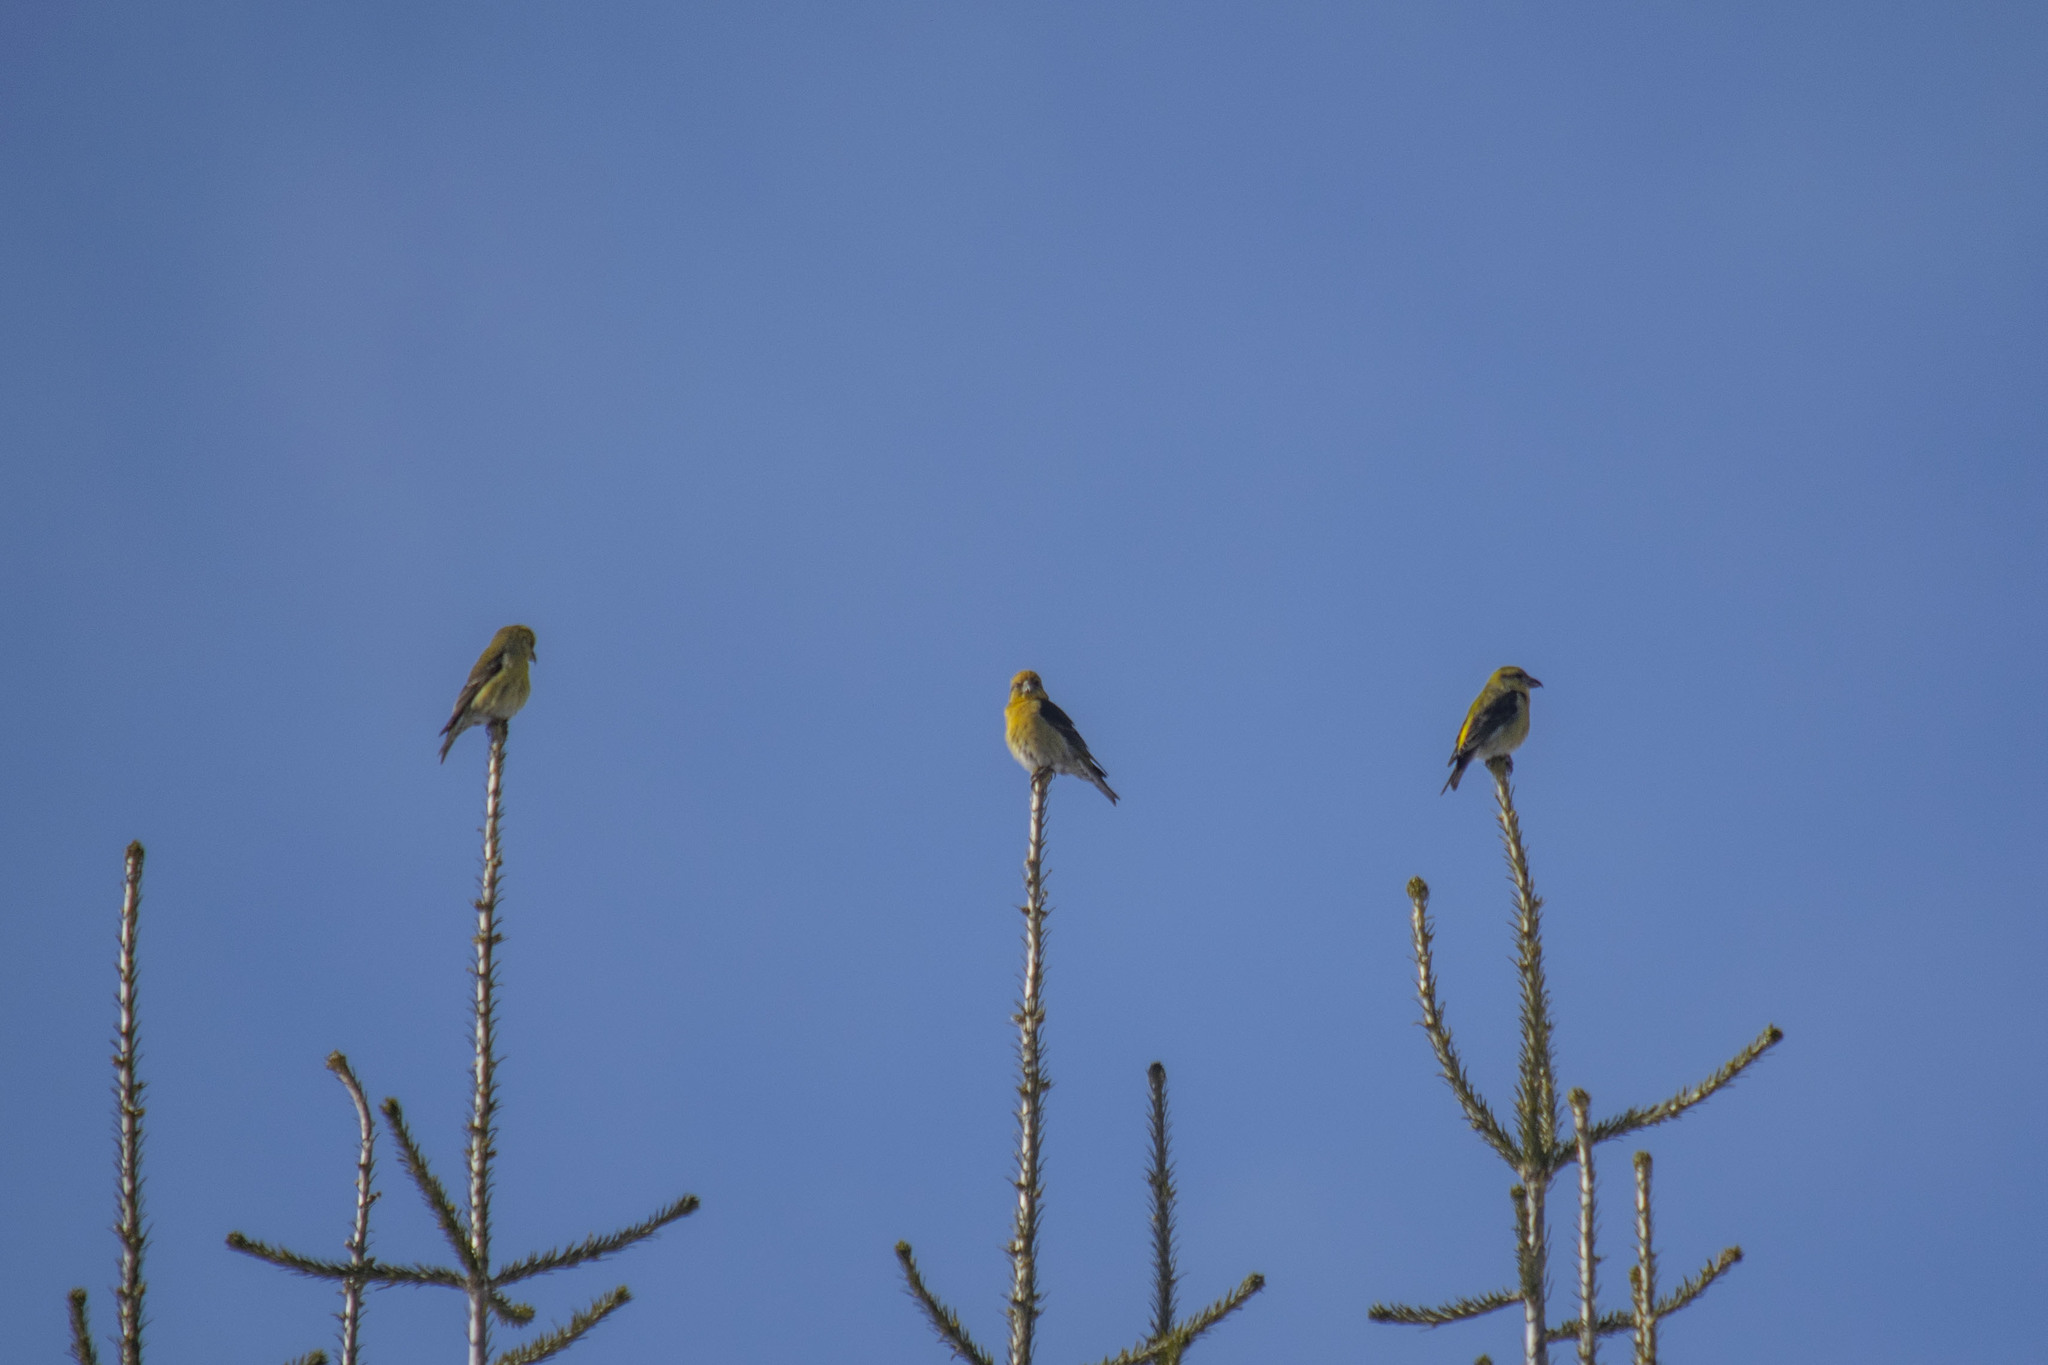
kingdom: Animalia
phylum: Chordata
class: Aves
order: Passeriformes
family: Fringillidae
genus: Loxia
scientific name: Loxia curvirostra
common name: Red crossbill
